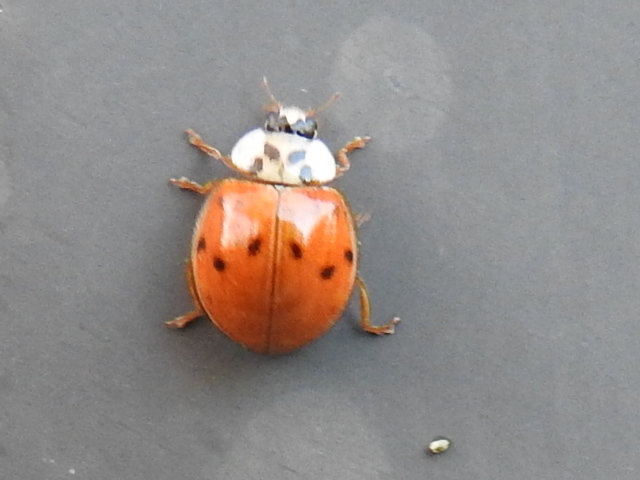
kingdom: Animalia
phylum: Arthropoda
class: Insecta
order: Coleoptera
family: Coccinellidae
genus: Harmonia
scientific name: Harmonia axyridis
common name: Harlequin ladybird
